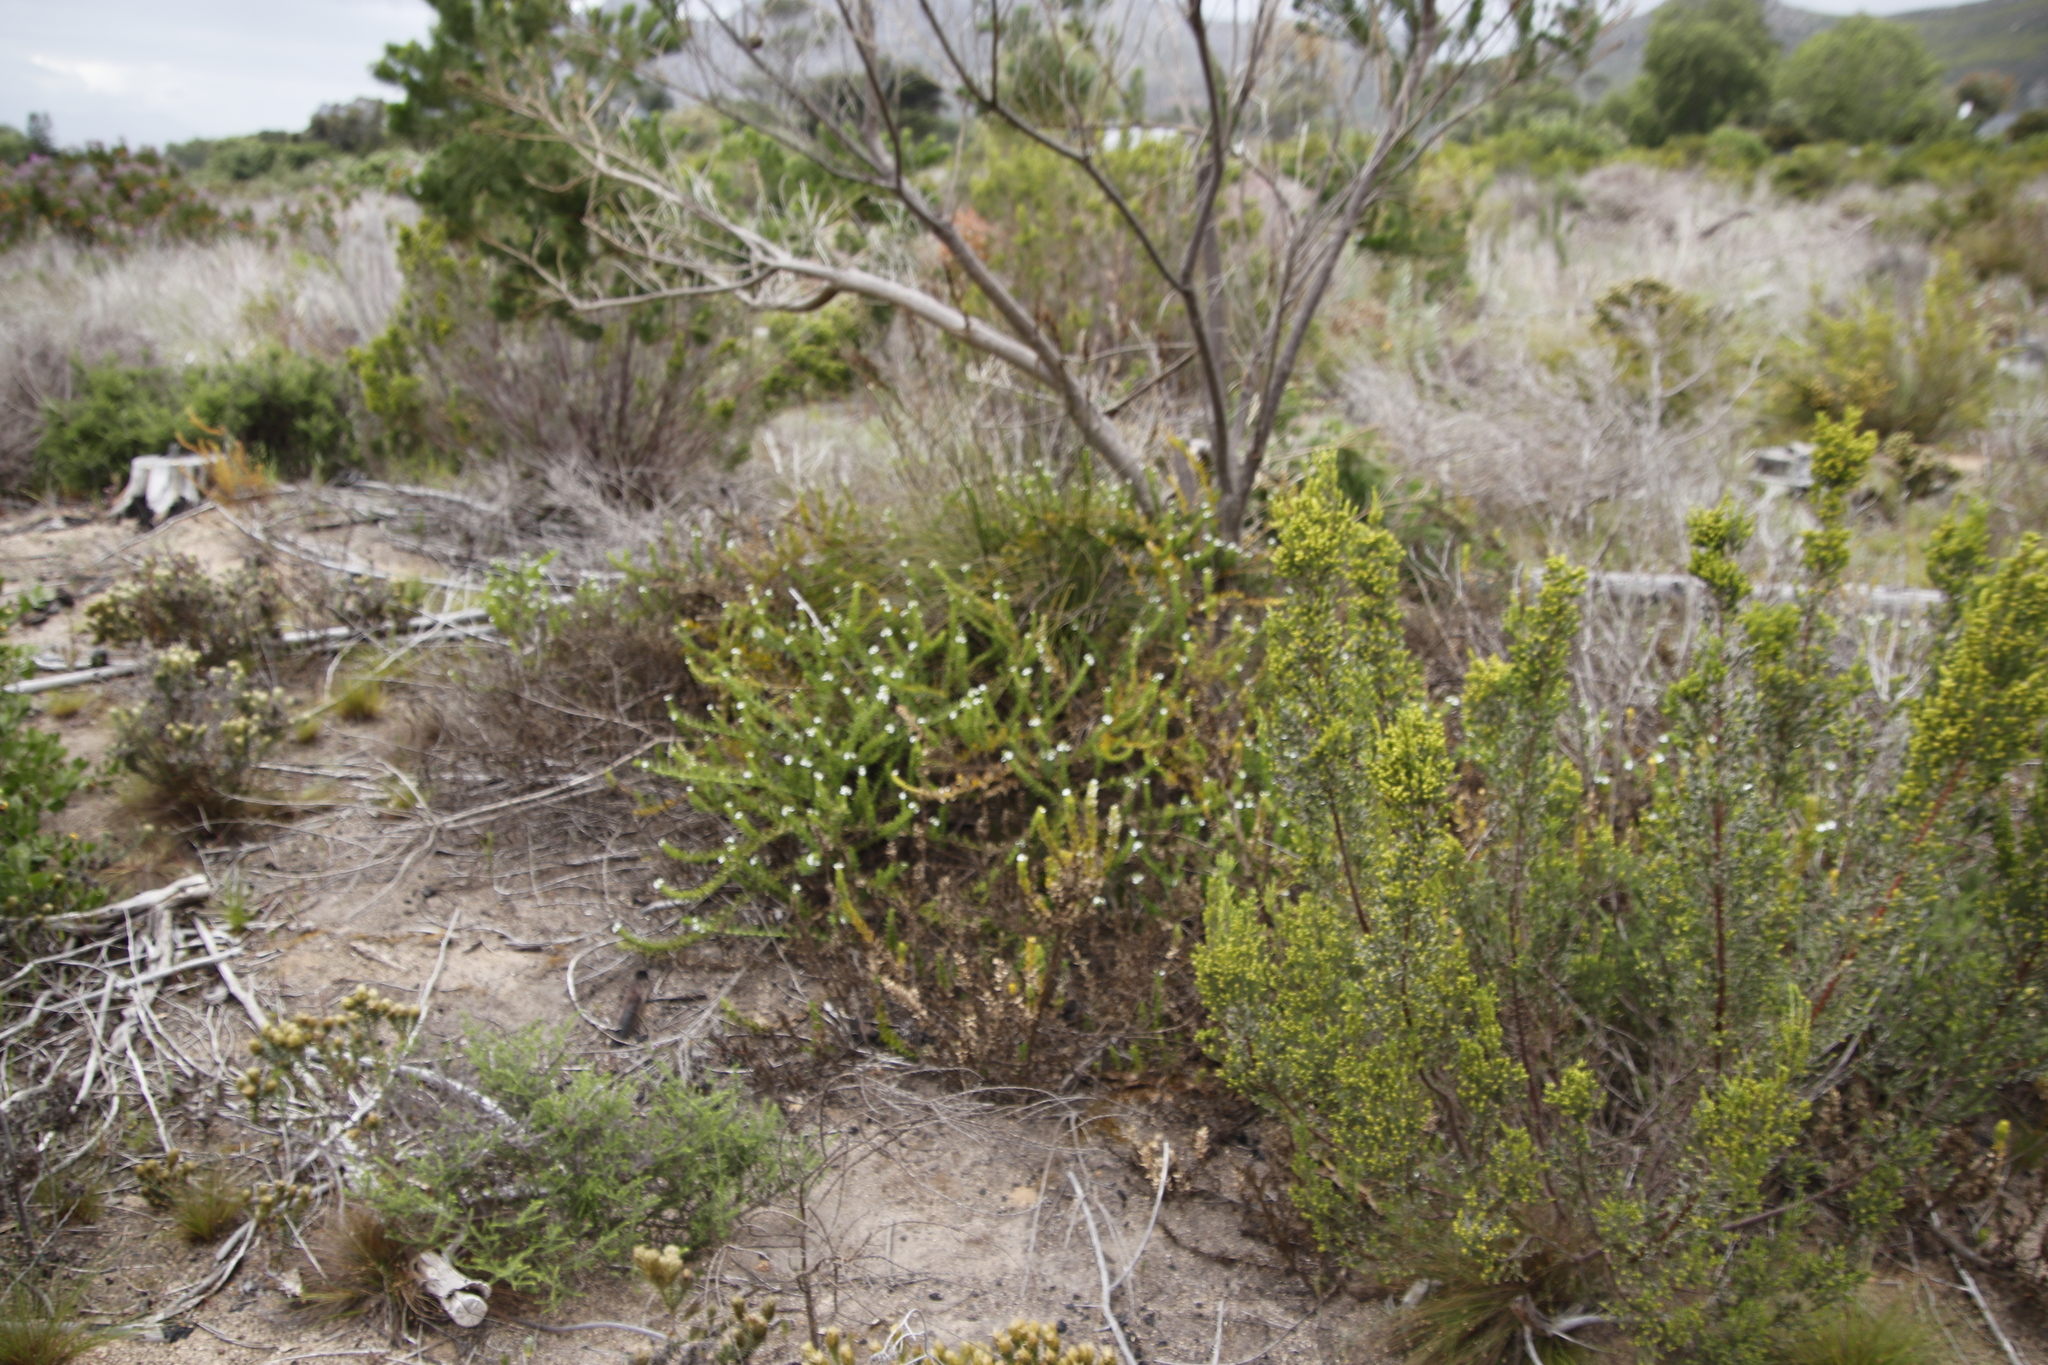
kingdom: Plantae
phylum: Tracheophyta
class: Magnoliopsida
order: Lamiales
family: Scrophulariaceae
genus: Oftia
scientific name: Oftia africana
